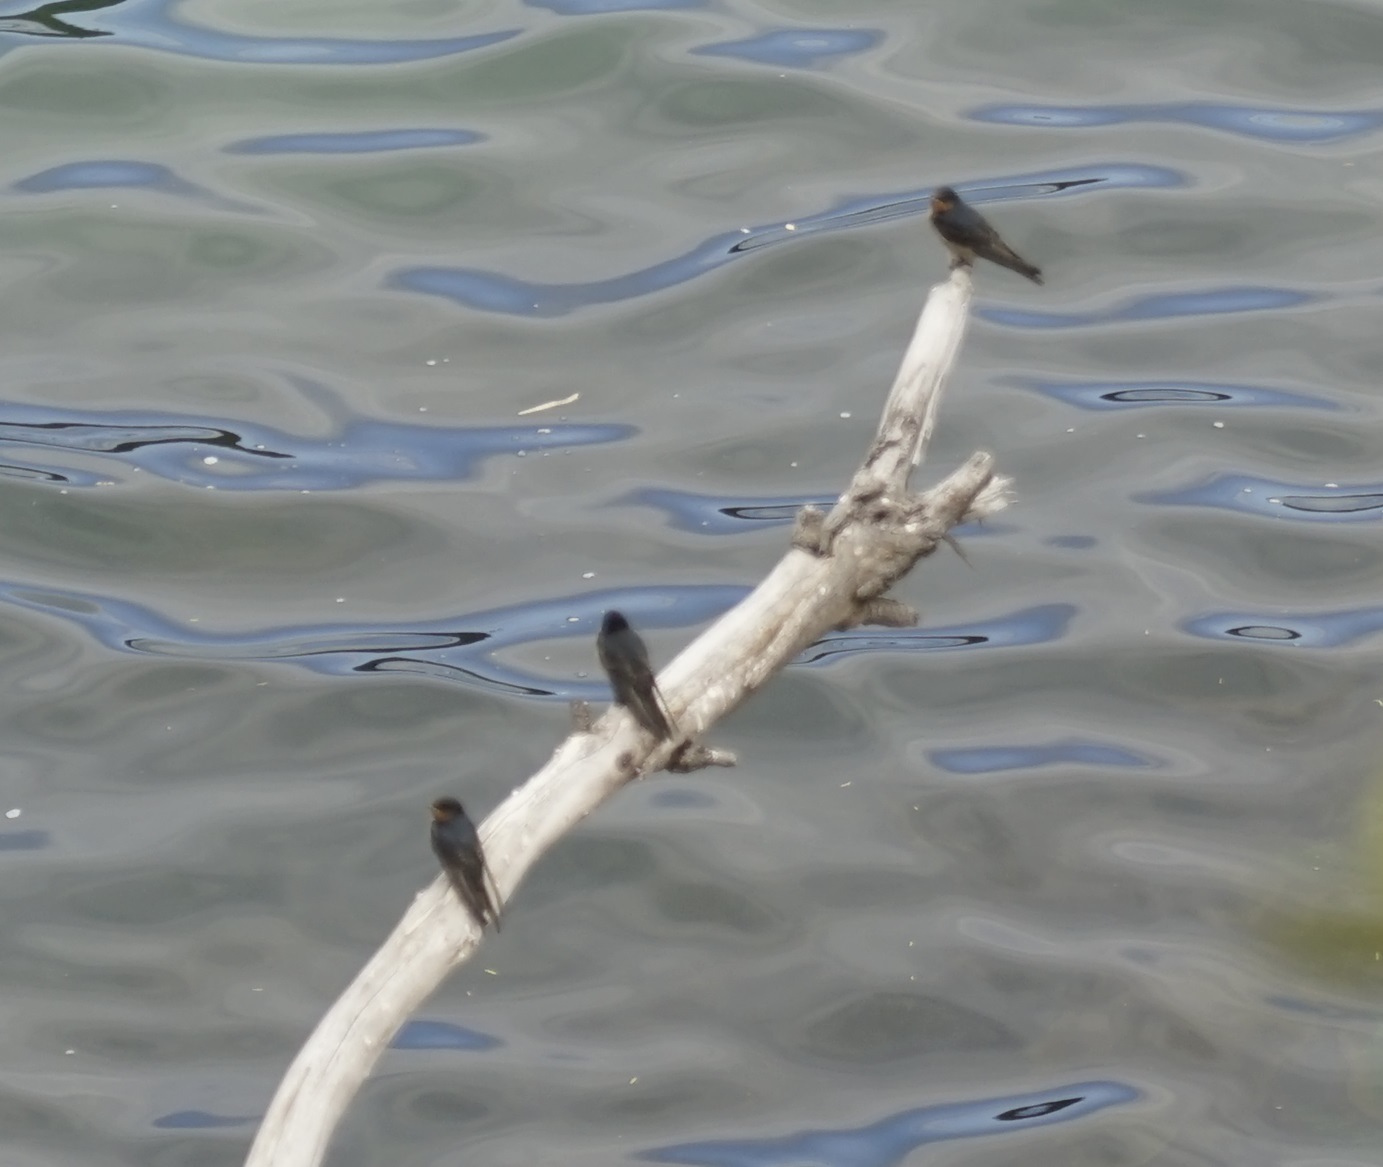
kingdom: Animalia
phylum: Chordata
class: Aves
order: Passeriformes
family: Hirundinidae
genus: Hirundo
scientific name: Hirundo neoxena
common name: Welcome swallow
